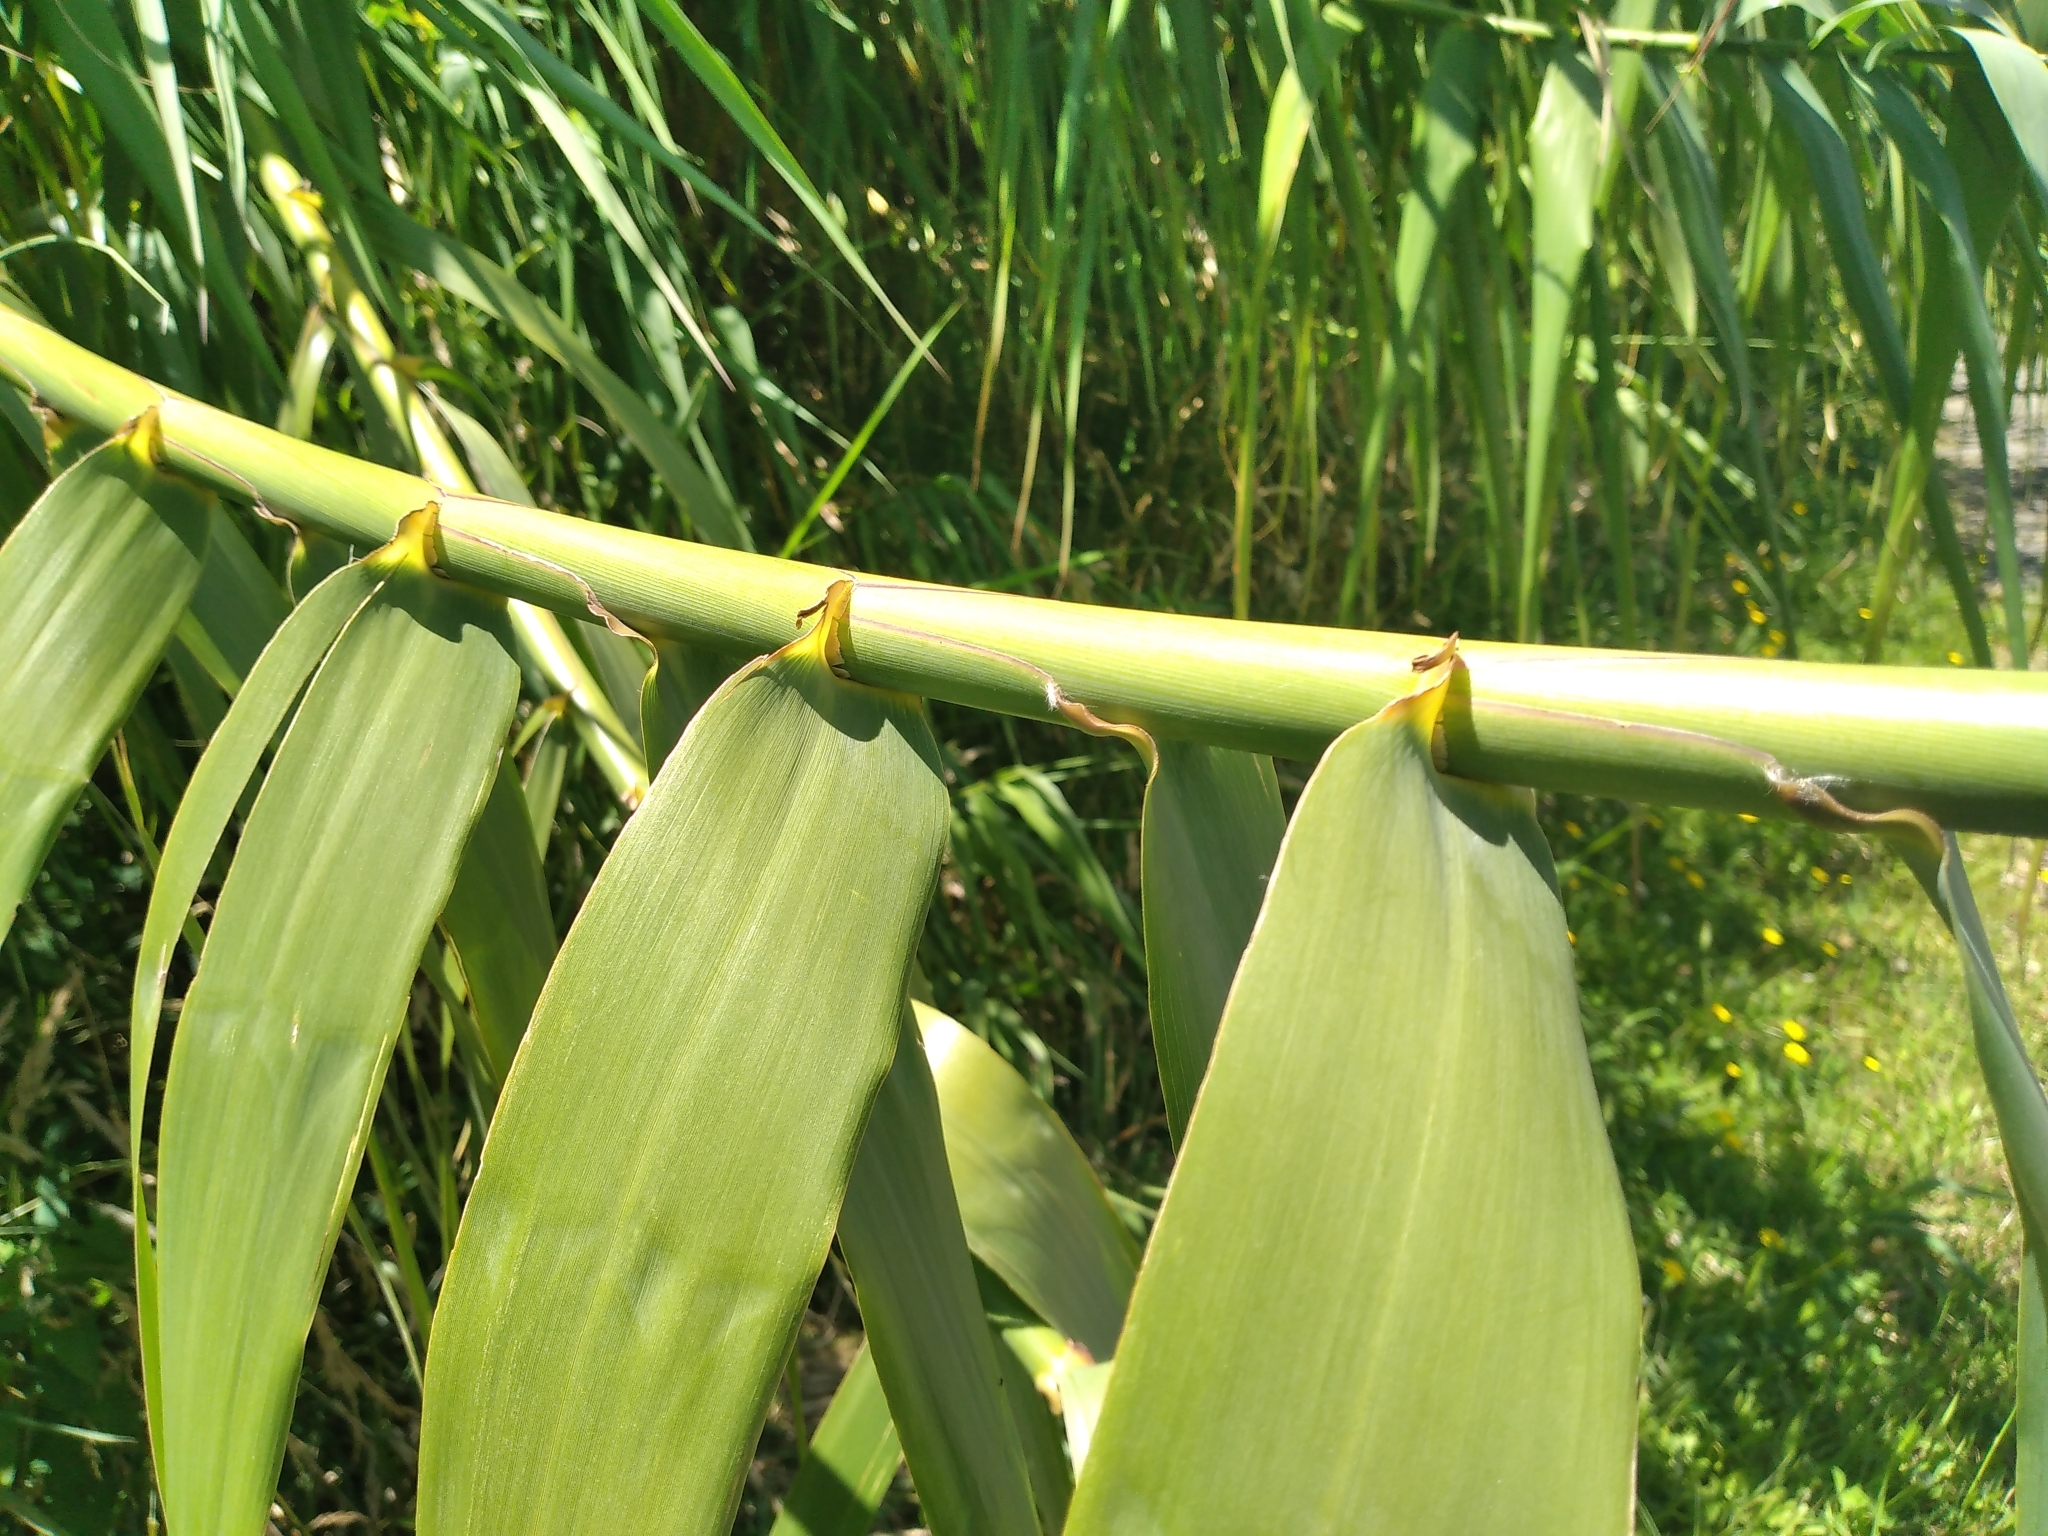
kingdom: Plantae
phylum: Tracheophyta
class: Liliopsida
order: Poales
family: Poaceae
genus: Arundo
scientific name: Arundo donax
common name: Giant reed
